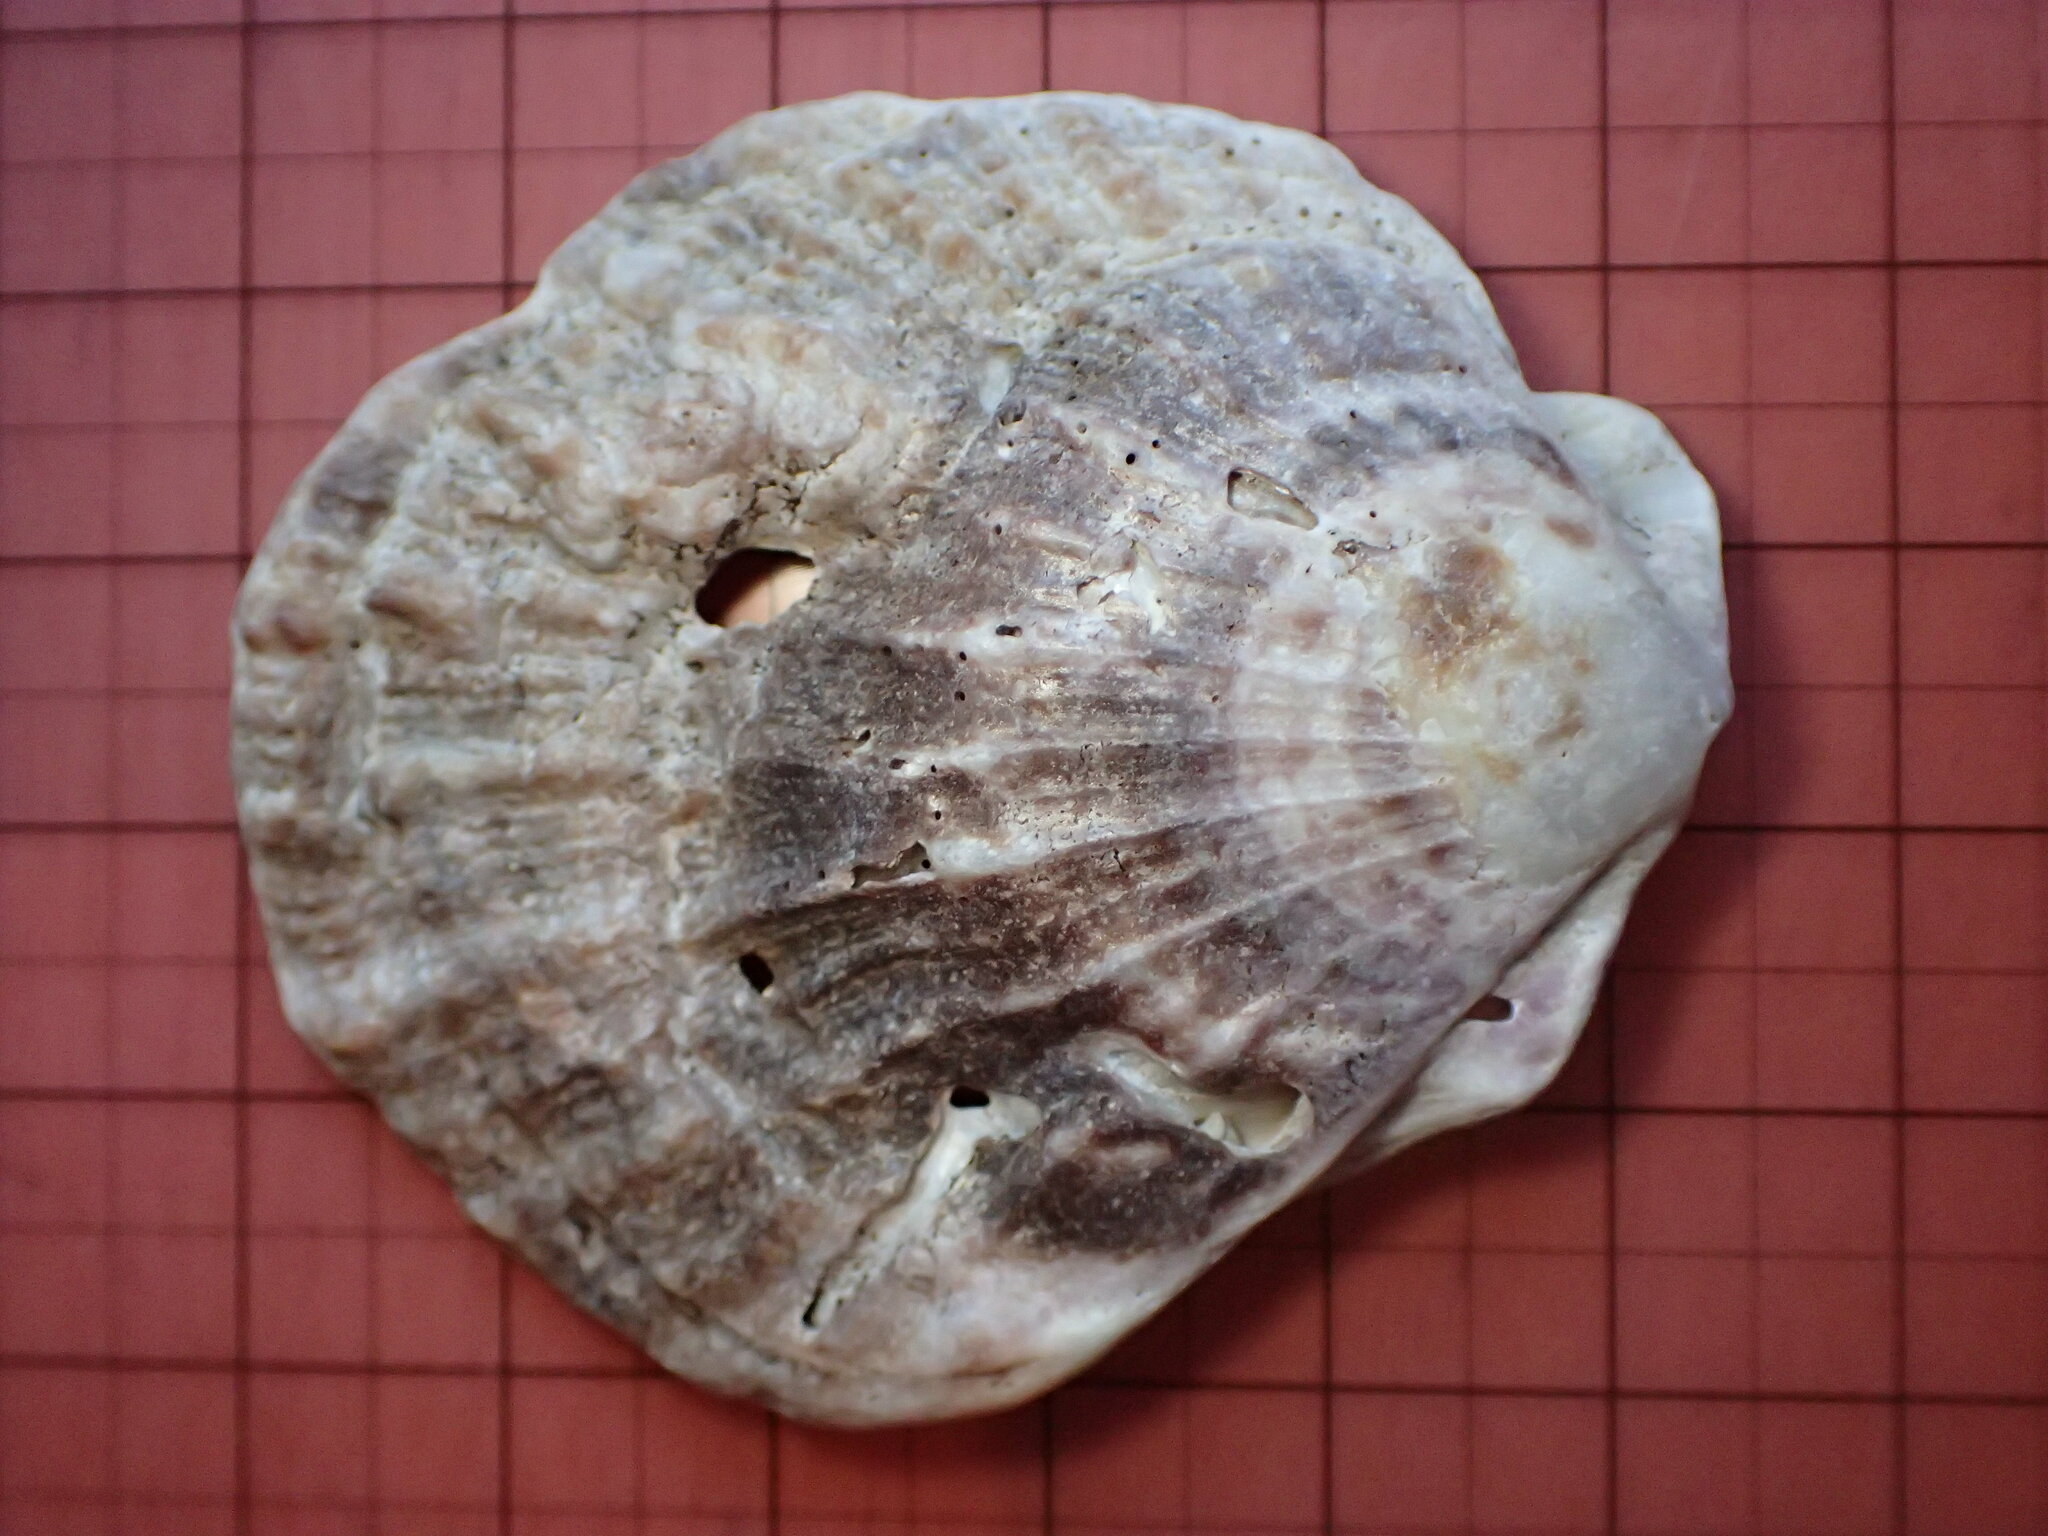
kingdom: Animalia
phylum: Mollusca
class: Bivalvia
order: Pectinida
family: Pectinidae
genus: Crassadoma
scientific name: Crassadoma gigantea
